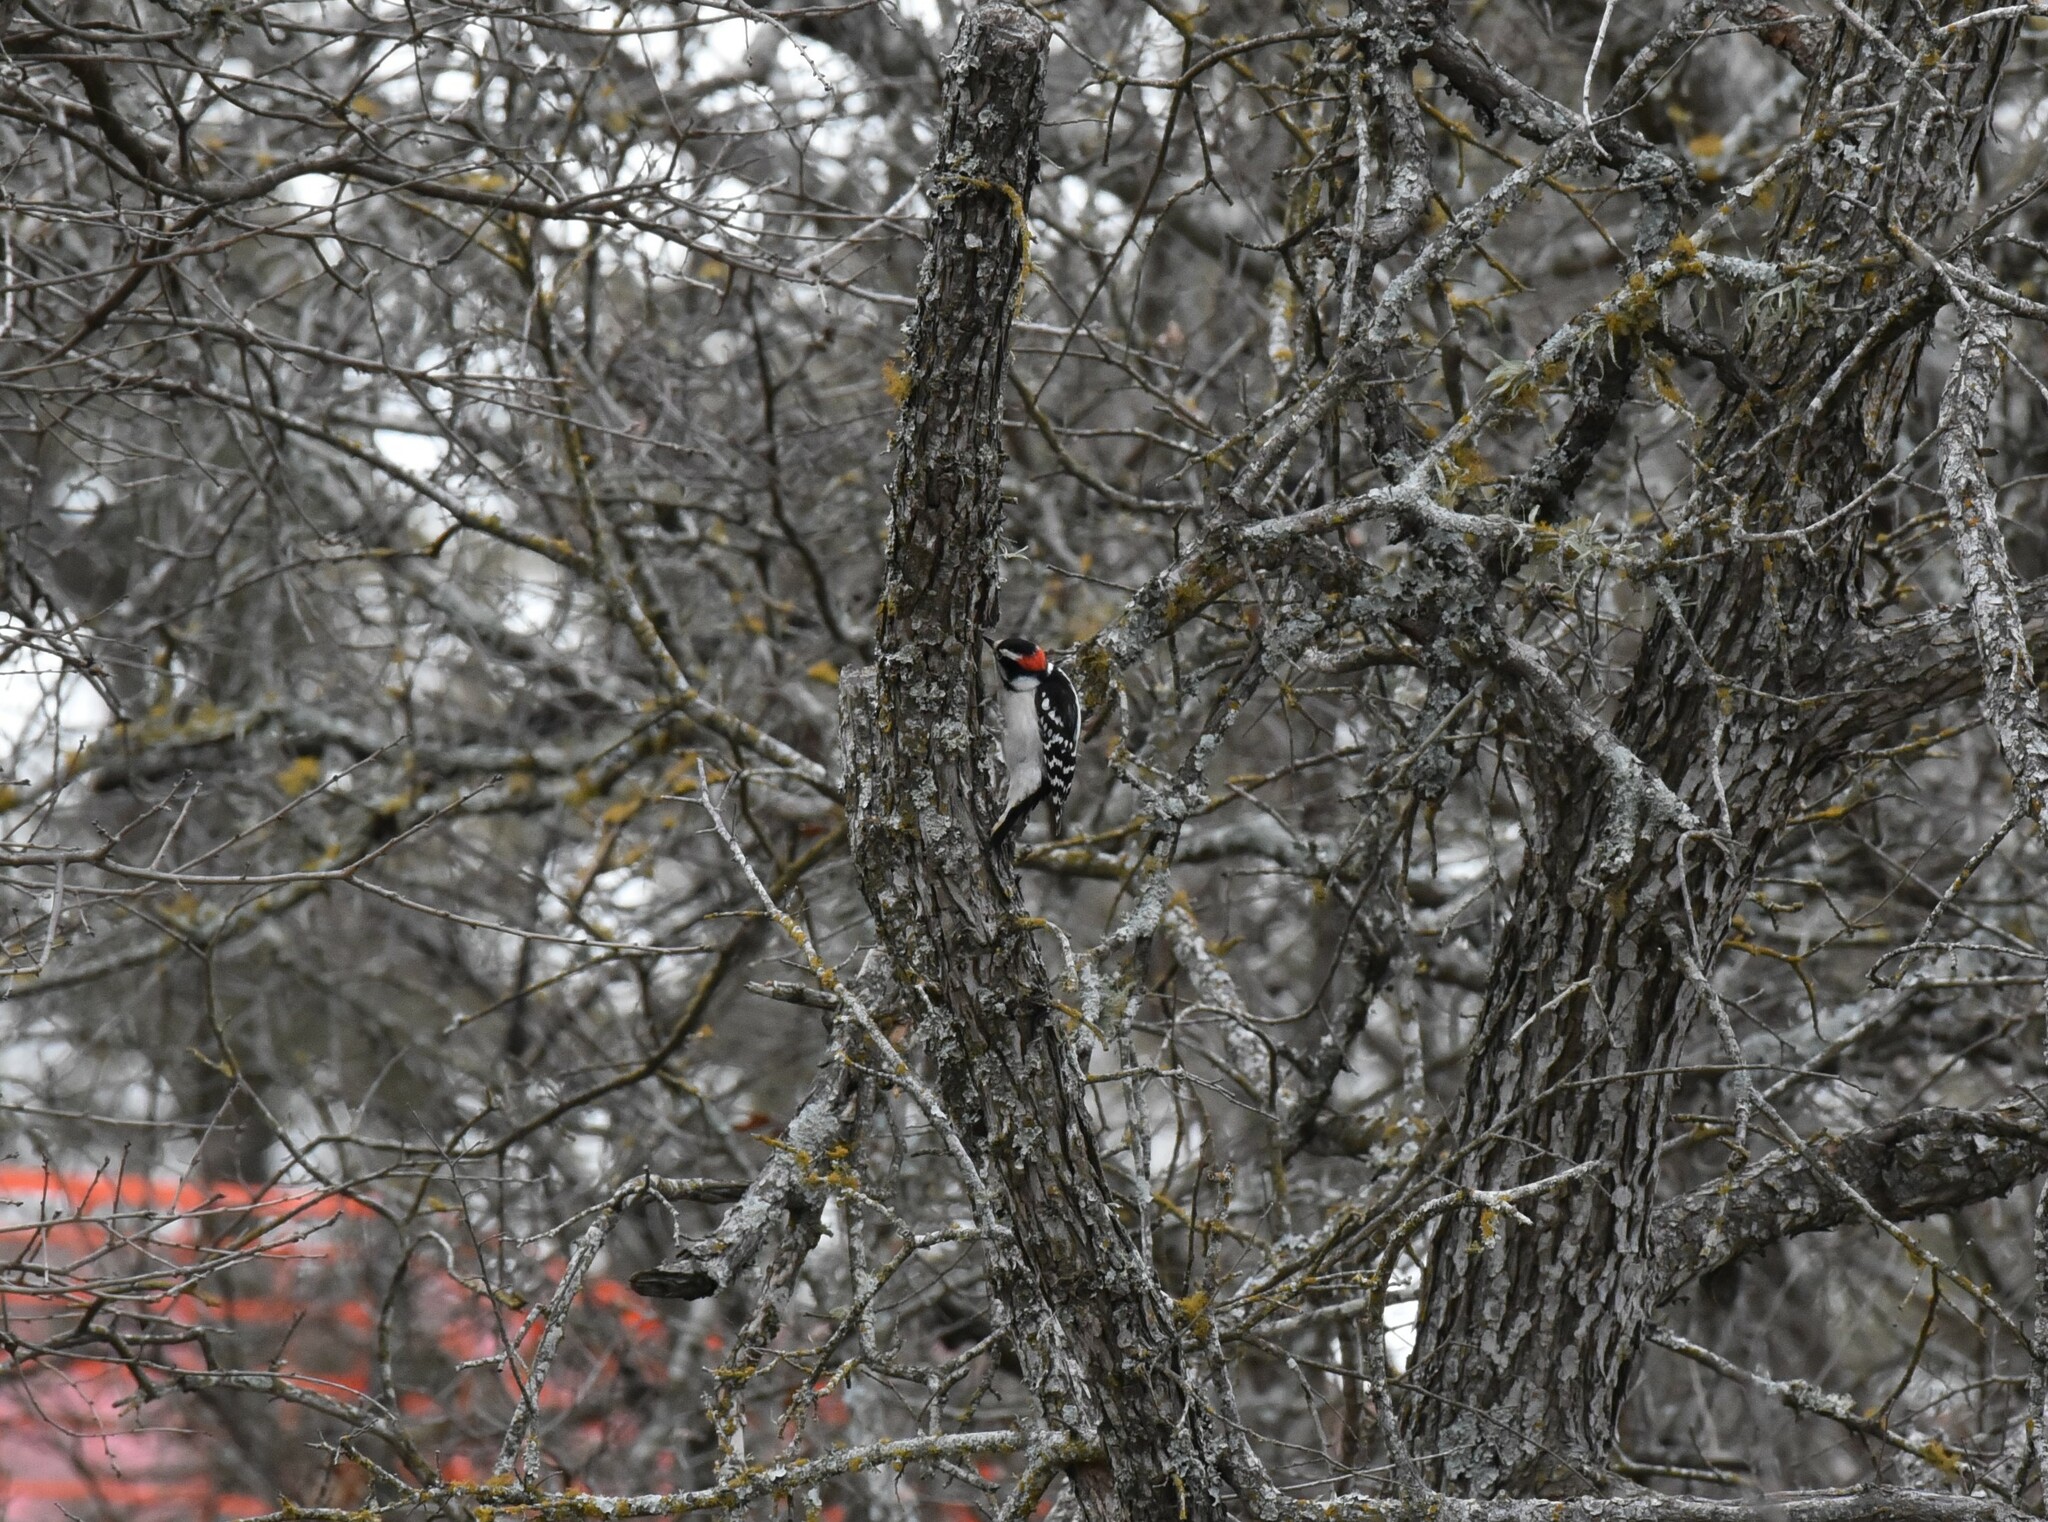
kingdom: Animalia
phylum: Chordata
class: Aves
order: Piciformes
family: Picidae
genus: Dryobates
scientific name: Dryobates pubescens
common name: Downy woodpecker
